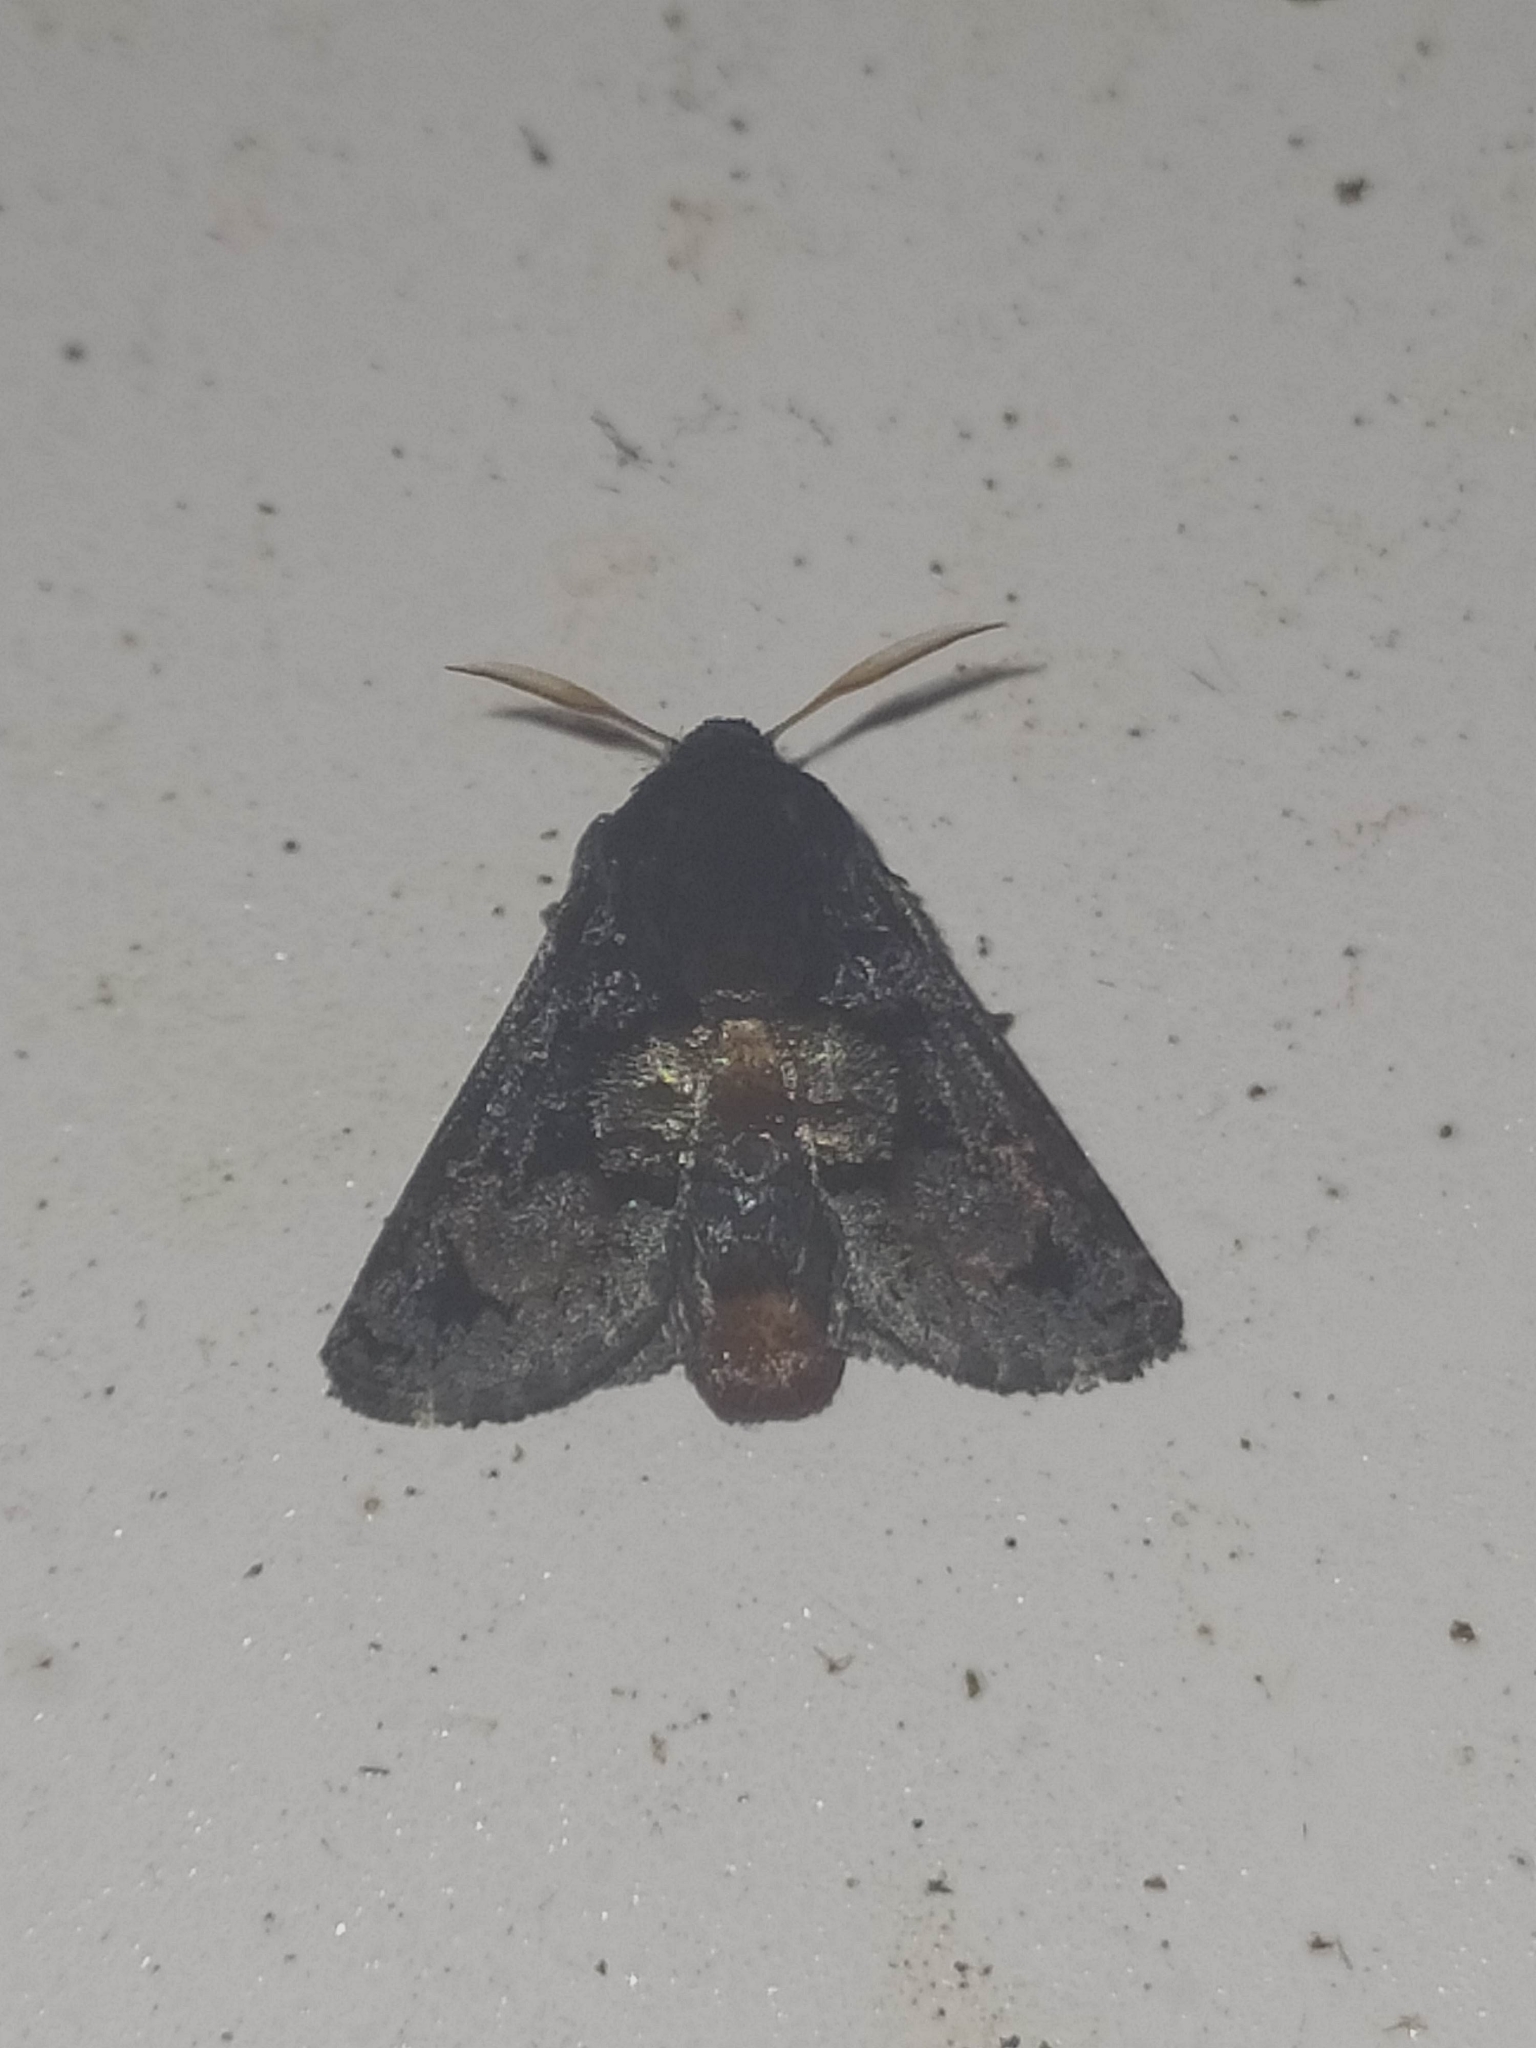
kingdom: Animalia
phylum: Arthropoda
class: Insecta
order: Lepidoptera
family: Limacodidae
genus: Euphobetron
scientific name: Euphobetron cupreitincta
